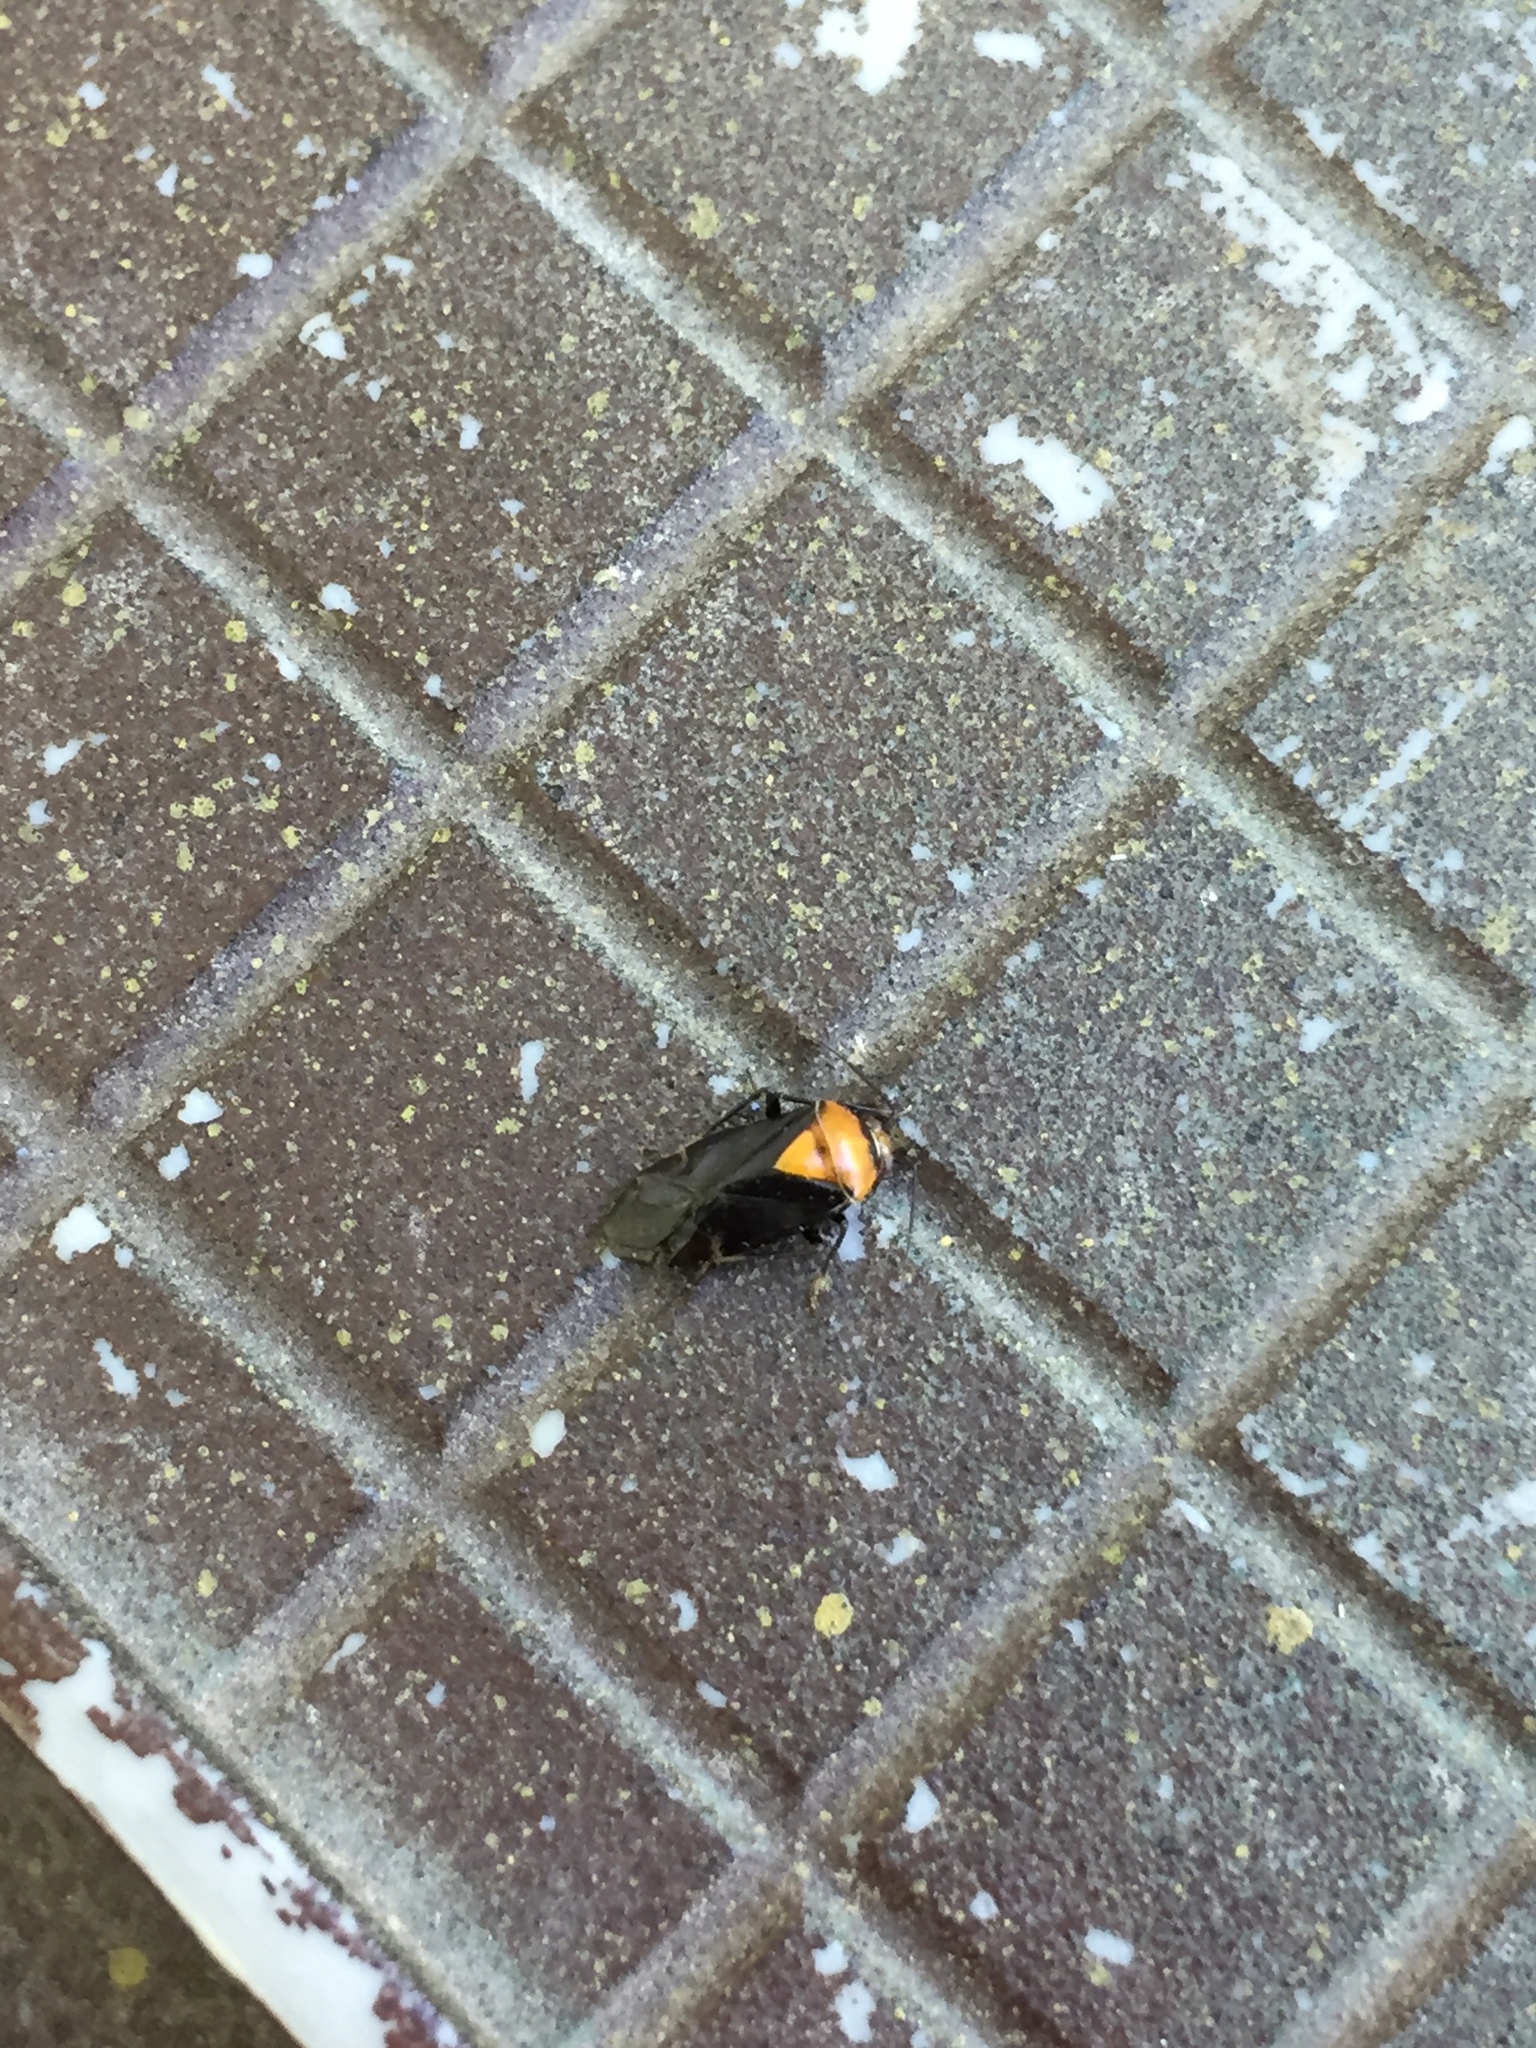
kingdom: Animalia
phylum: Arthropoda
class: Insecta
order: Hemiptera
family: Miridae
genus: Neocapsus
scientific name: Neocapsus cuneatus
